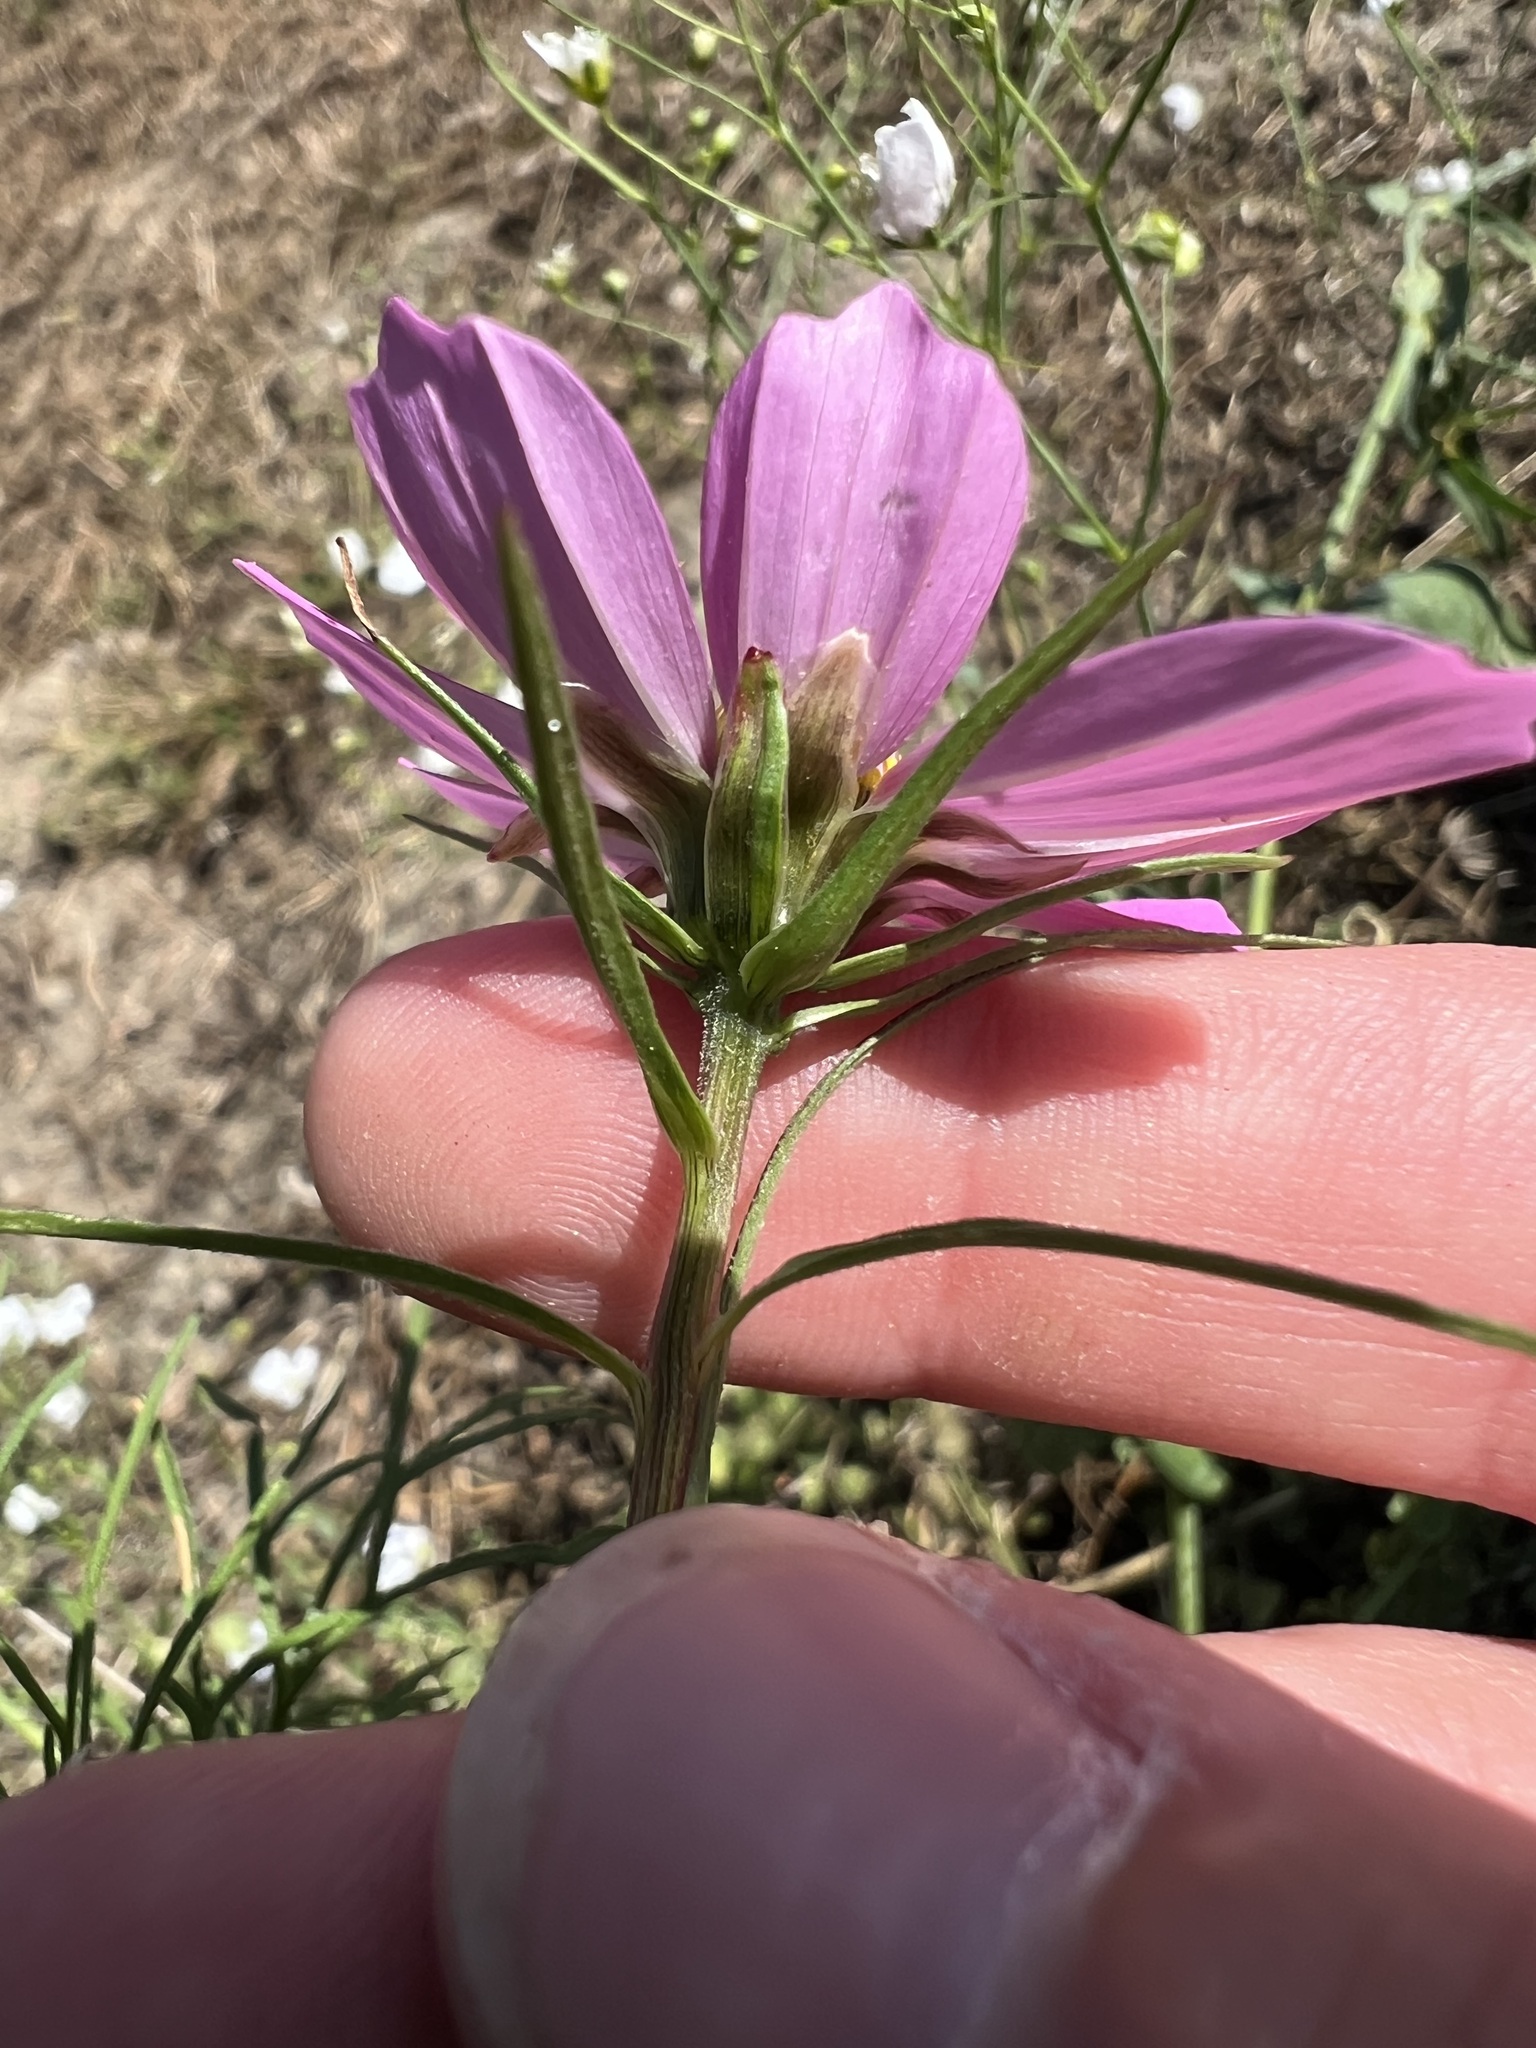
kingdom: Plantae
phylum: Tracheophyta
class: Magnoliopsida
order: Asterales
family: Asteraceae
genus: Cosmos
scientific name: Cosmos bipinnatus
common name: Garden cosmos
